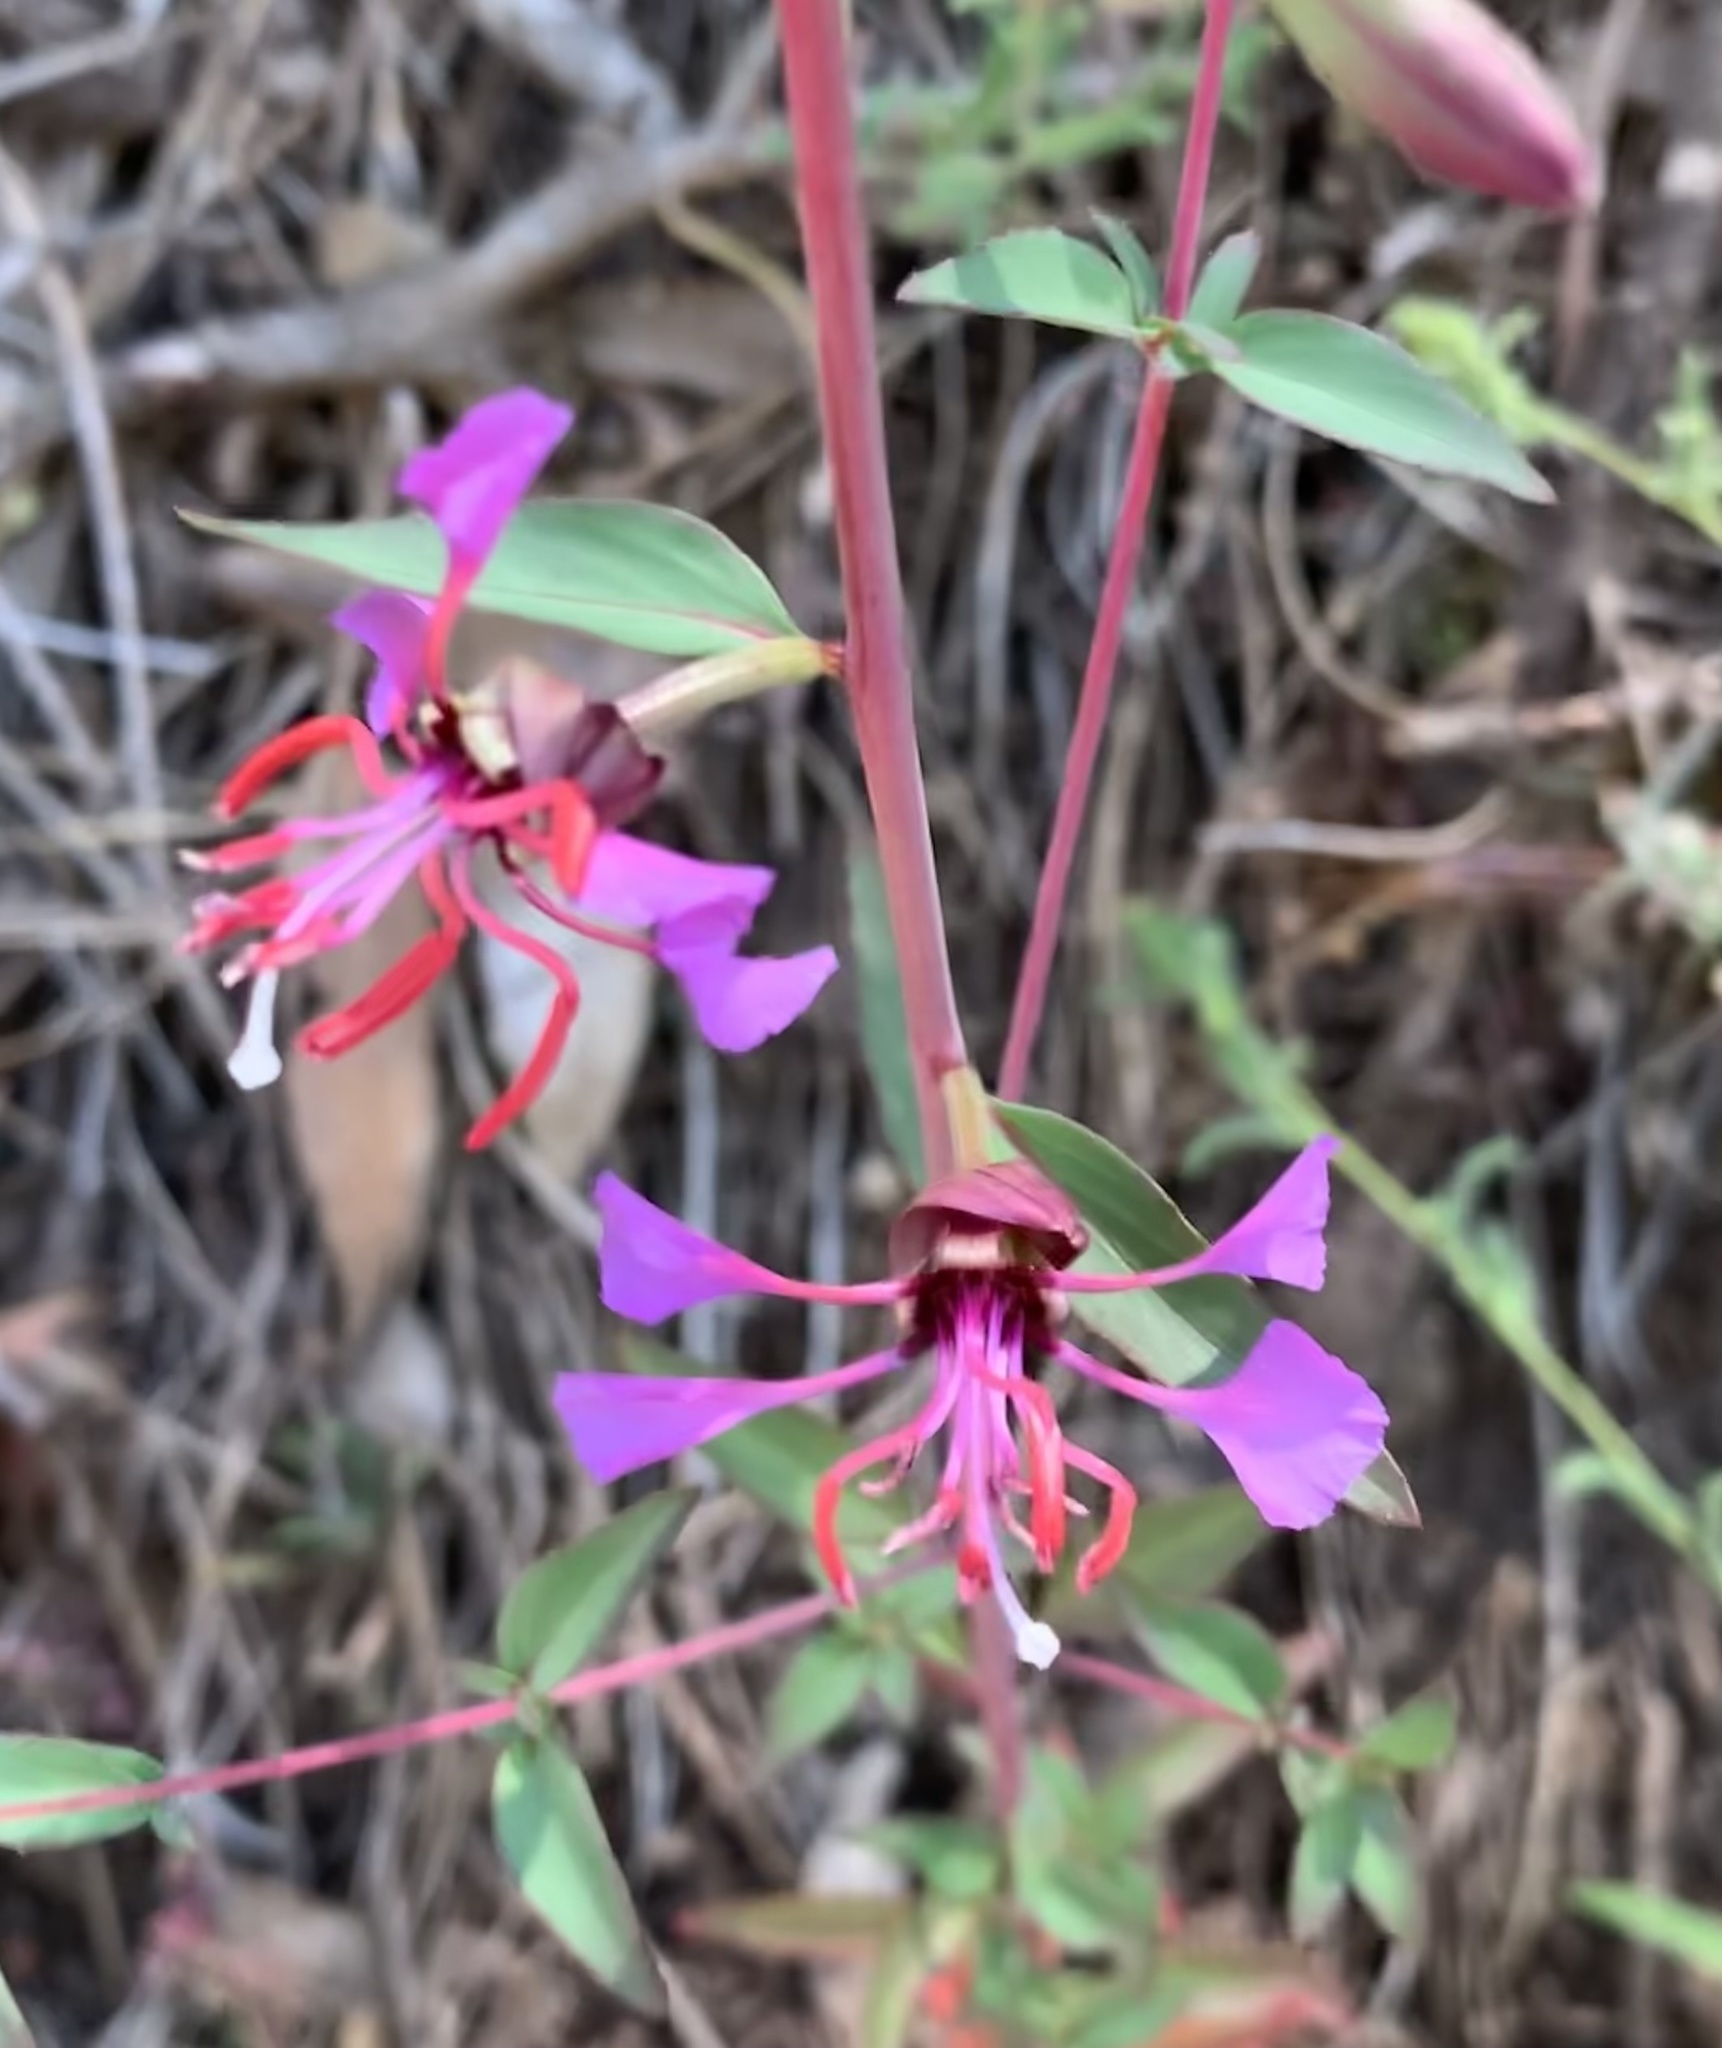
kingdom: Plantae
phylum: Tracheophyta
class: Magnoliopsida
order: Myrtales
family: Onagraceae
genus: Clarkia
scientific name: Clarkia unguiculata
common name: Clarkia
